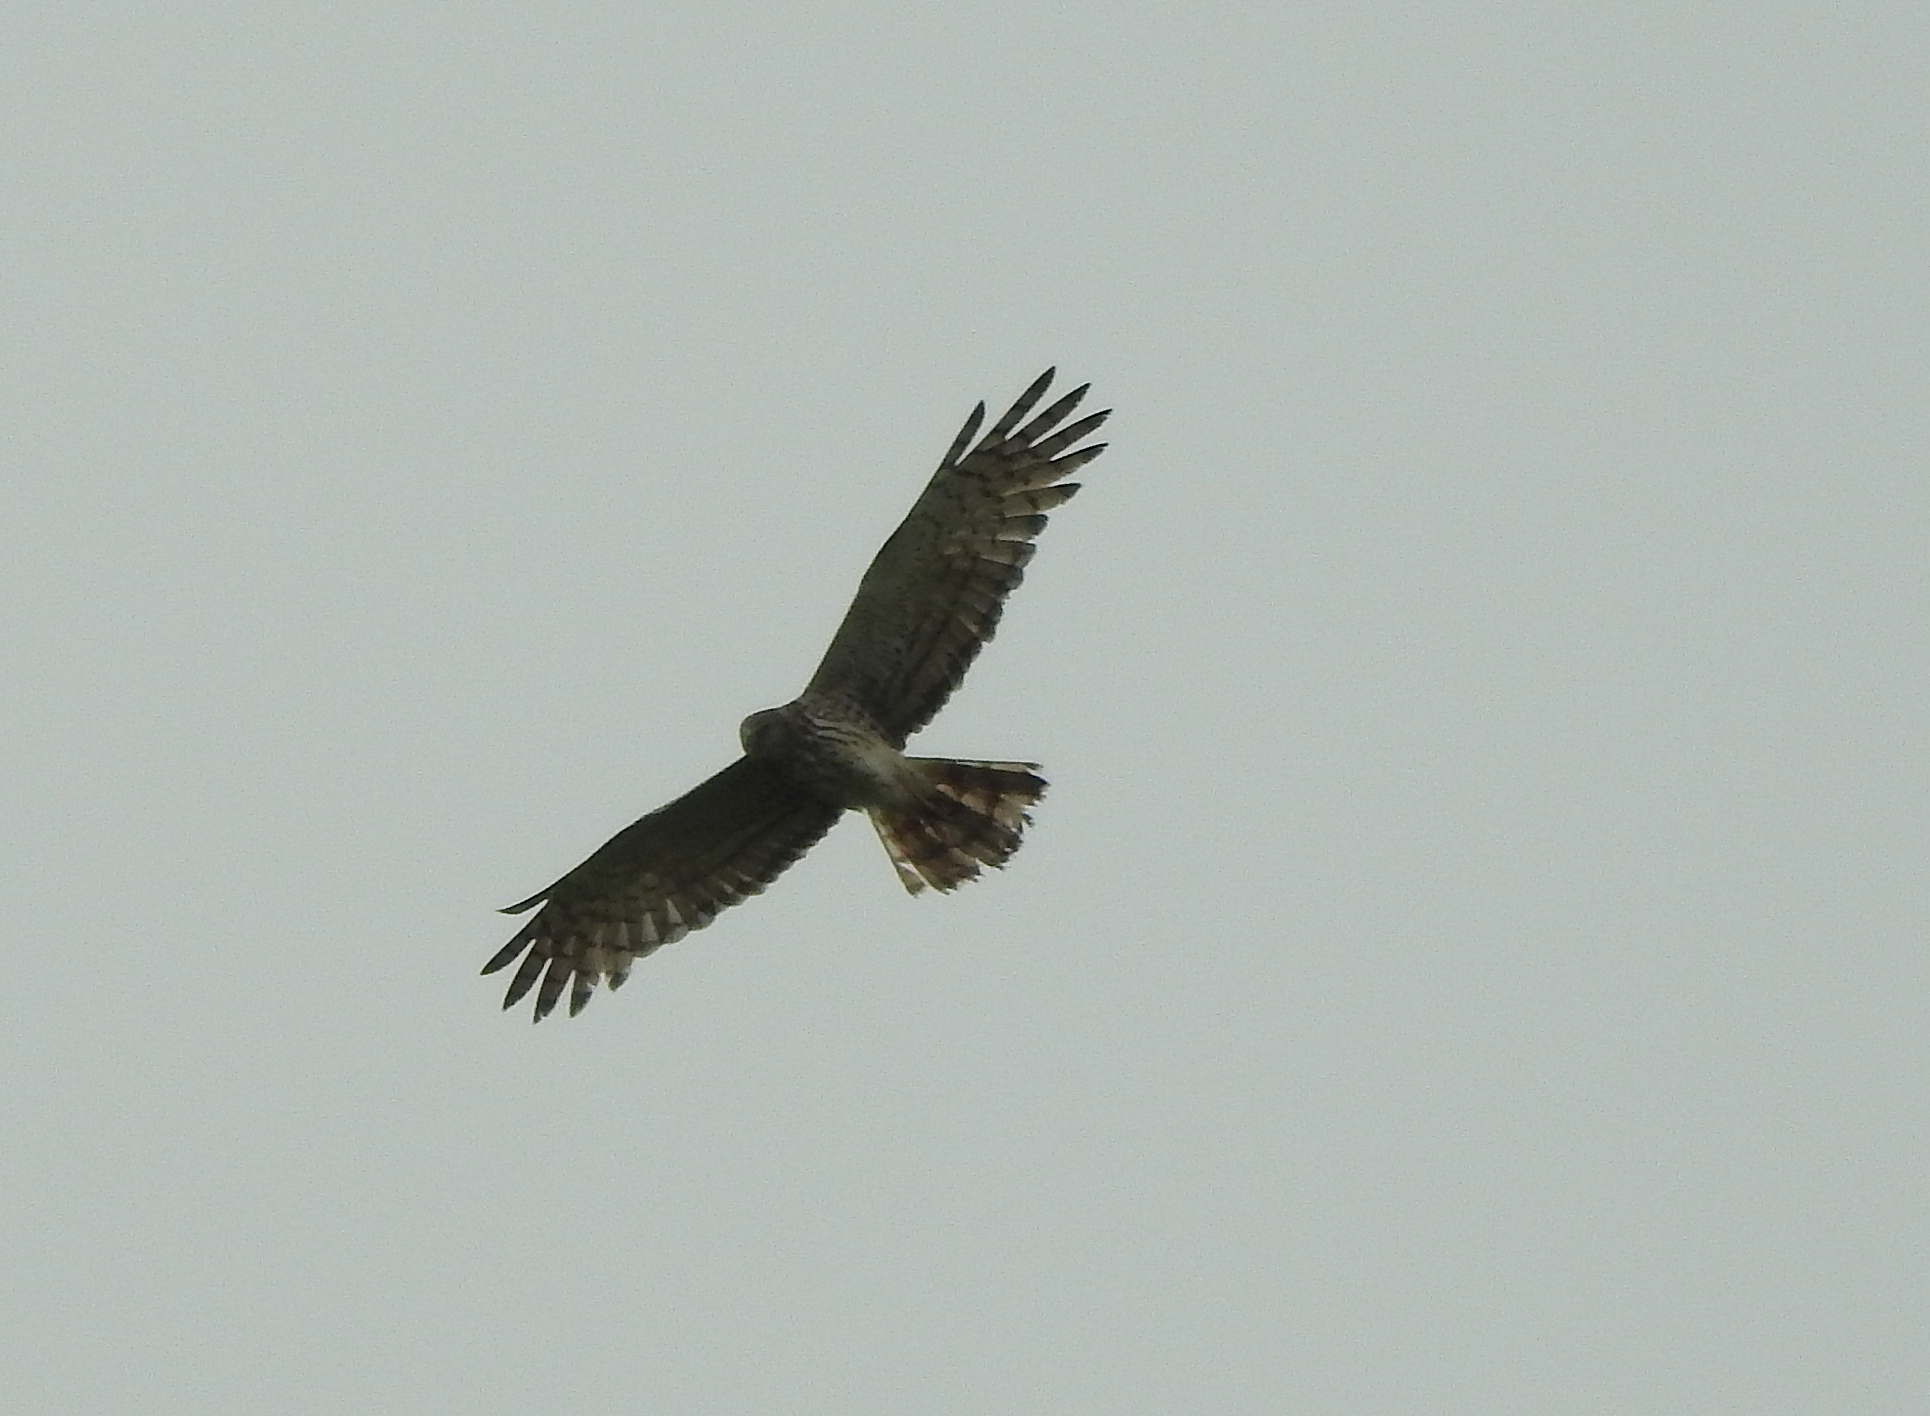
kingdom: Animalia
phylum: Chordata
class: Aves
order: Accipitriformes
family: Accipitridae
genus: Circus
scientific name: Circus melanoleucos
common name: Pied harrier
